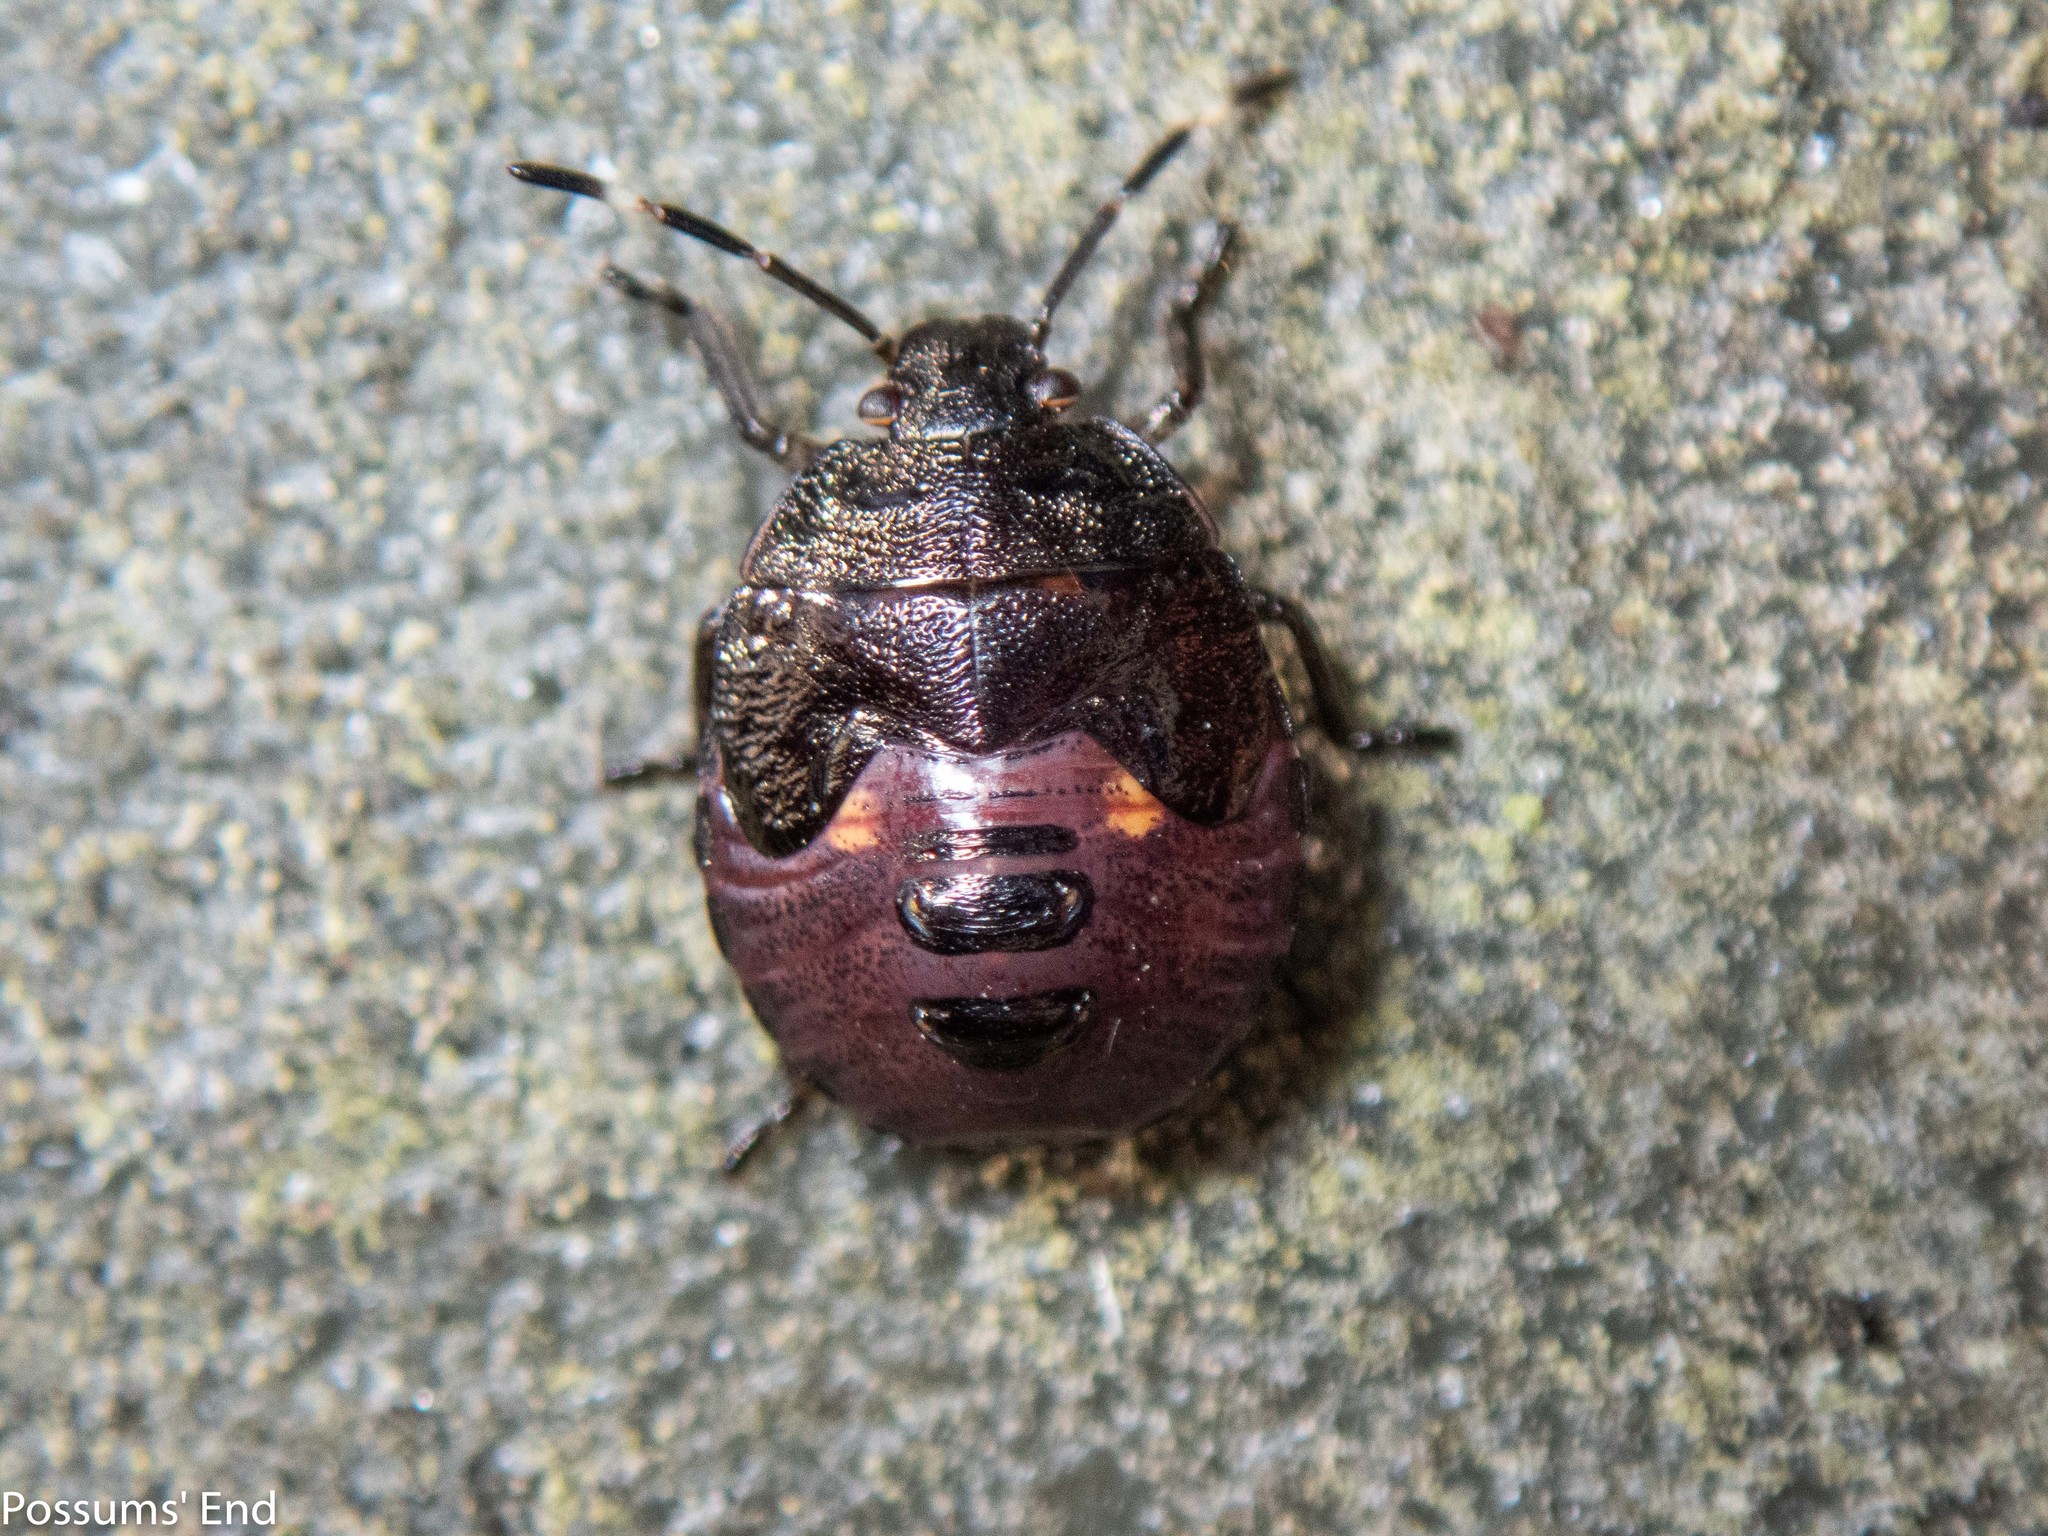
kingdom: Animalia
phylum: Arthropoda
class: Insecta
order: Hemiptera
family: Pentatomidae
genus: Monteithiella
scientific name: Monteithiella
